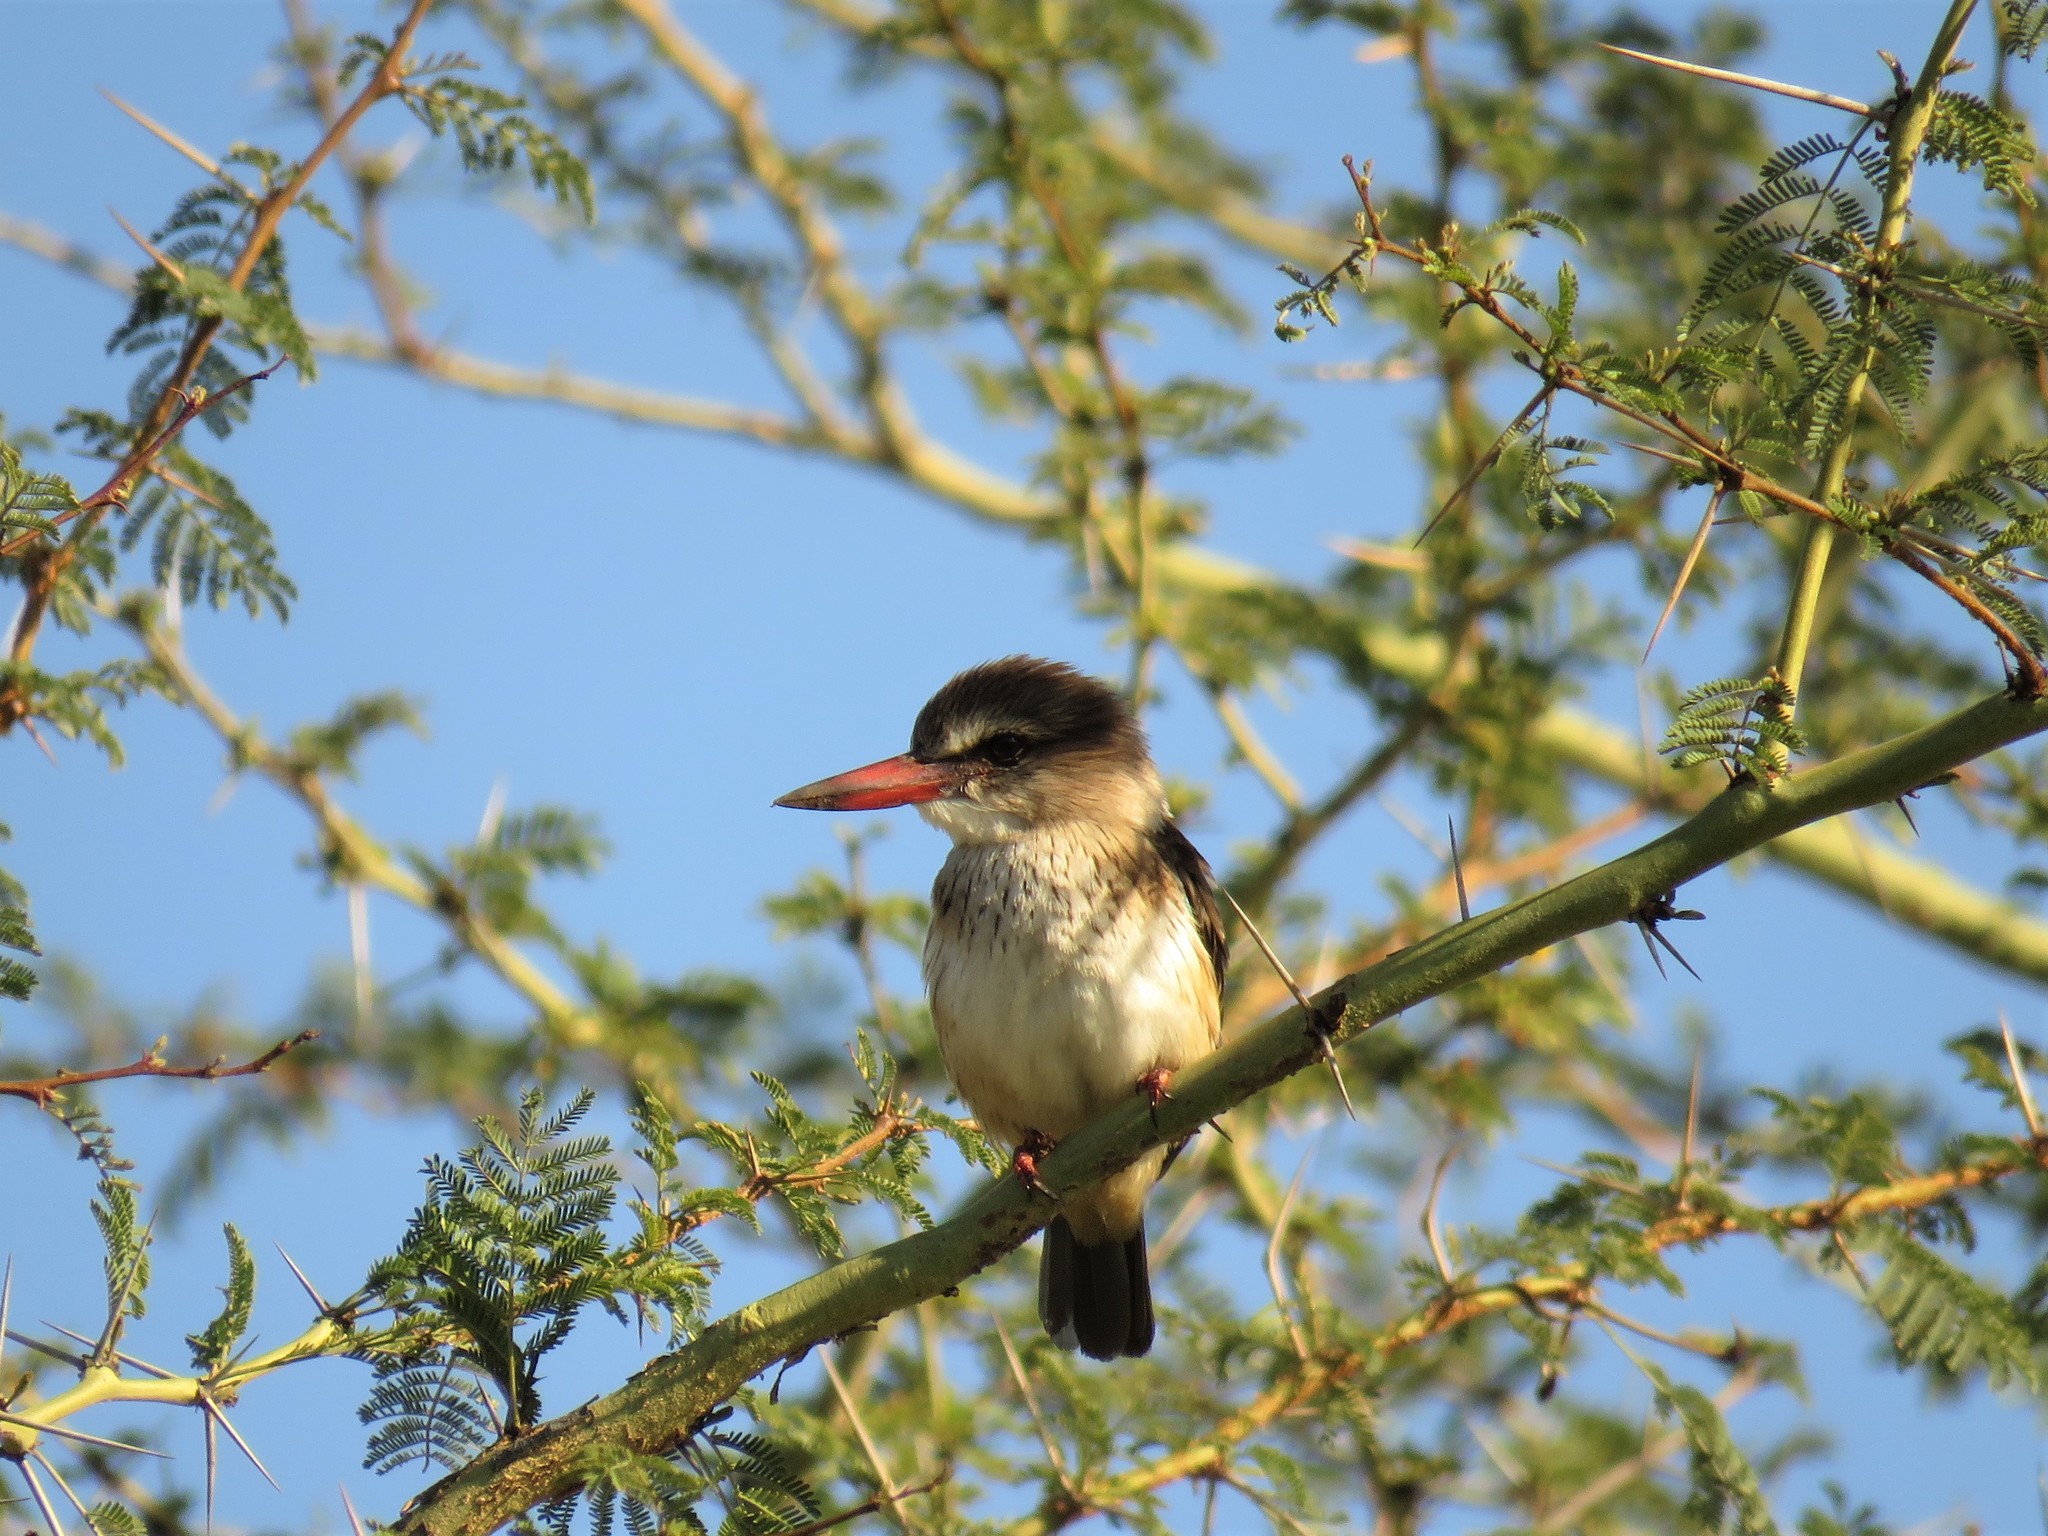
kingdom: Animalia
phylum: Chordata
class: Aves
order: Coraciiformes
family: Alcedinidae
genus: Halcyon
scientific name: Halcyon albiventris
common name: Brown-hooded kingfisher
